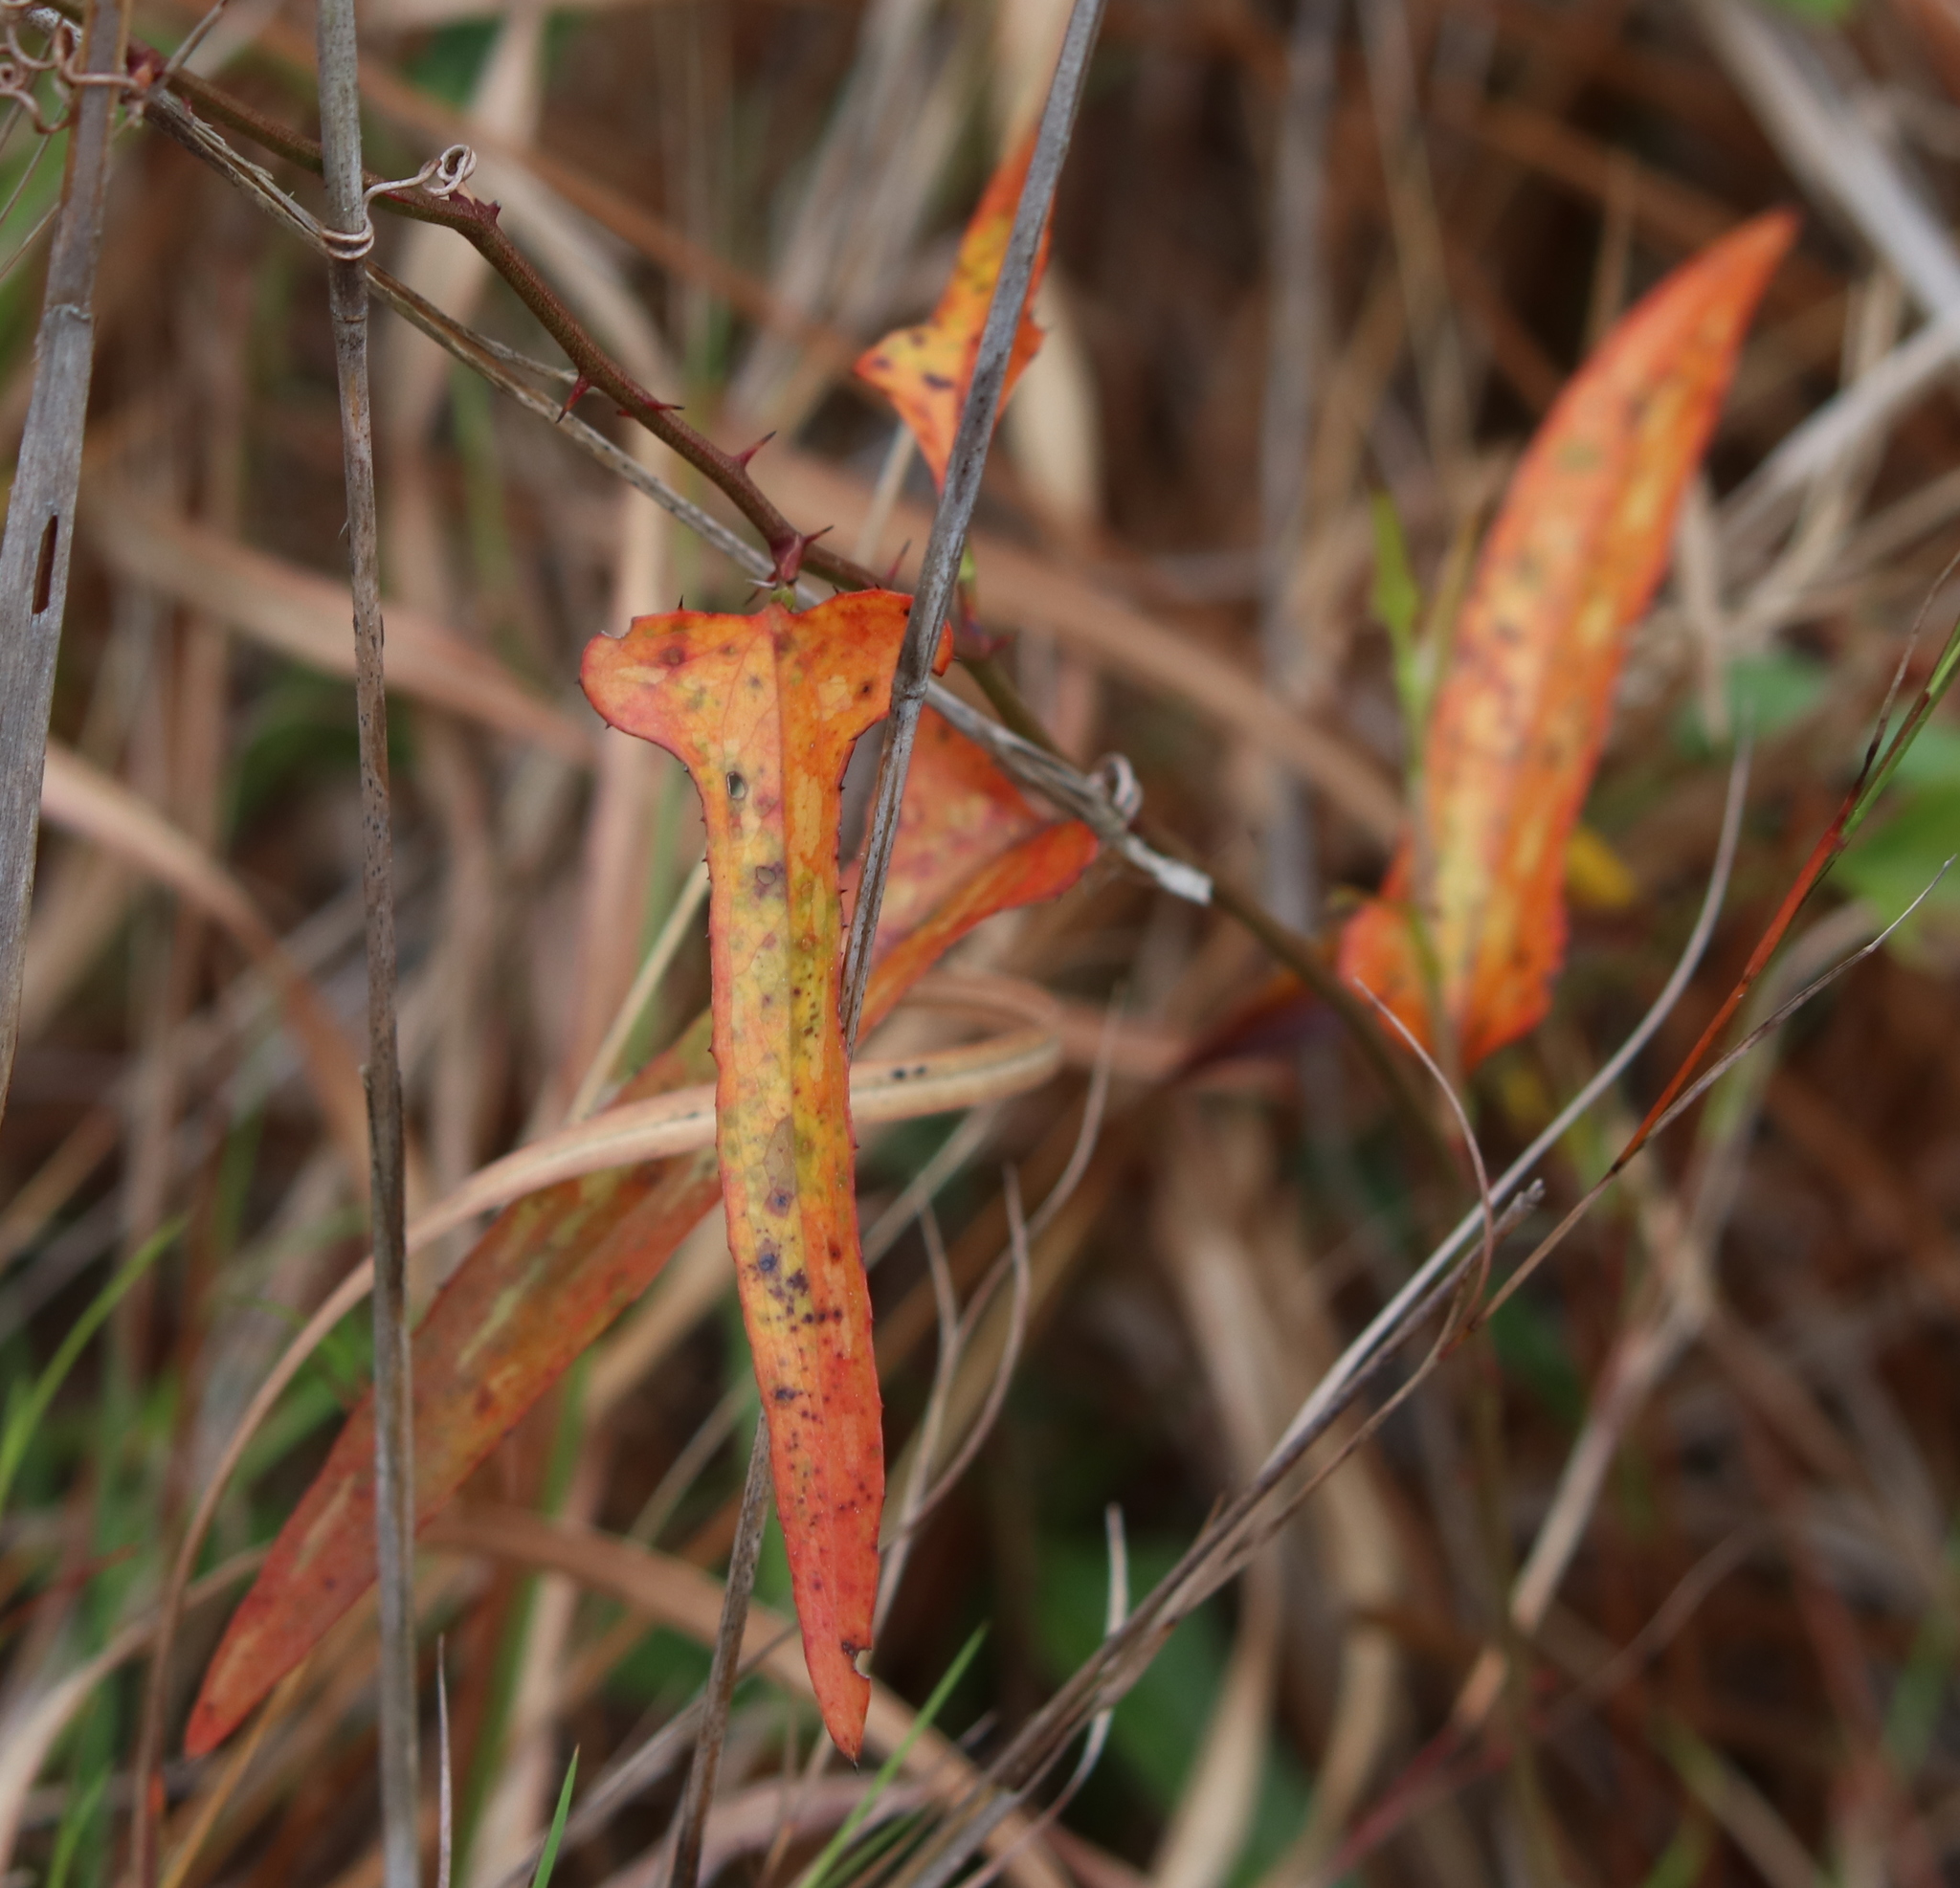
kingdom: Plantae
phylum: Tracheophyta
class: Liliopsida
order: Liliales
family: Smilacaceae
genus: Smilax
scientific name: Smilax bona-nox
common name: Catbrier
